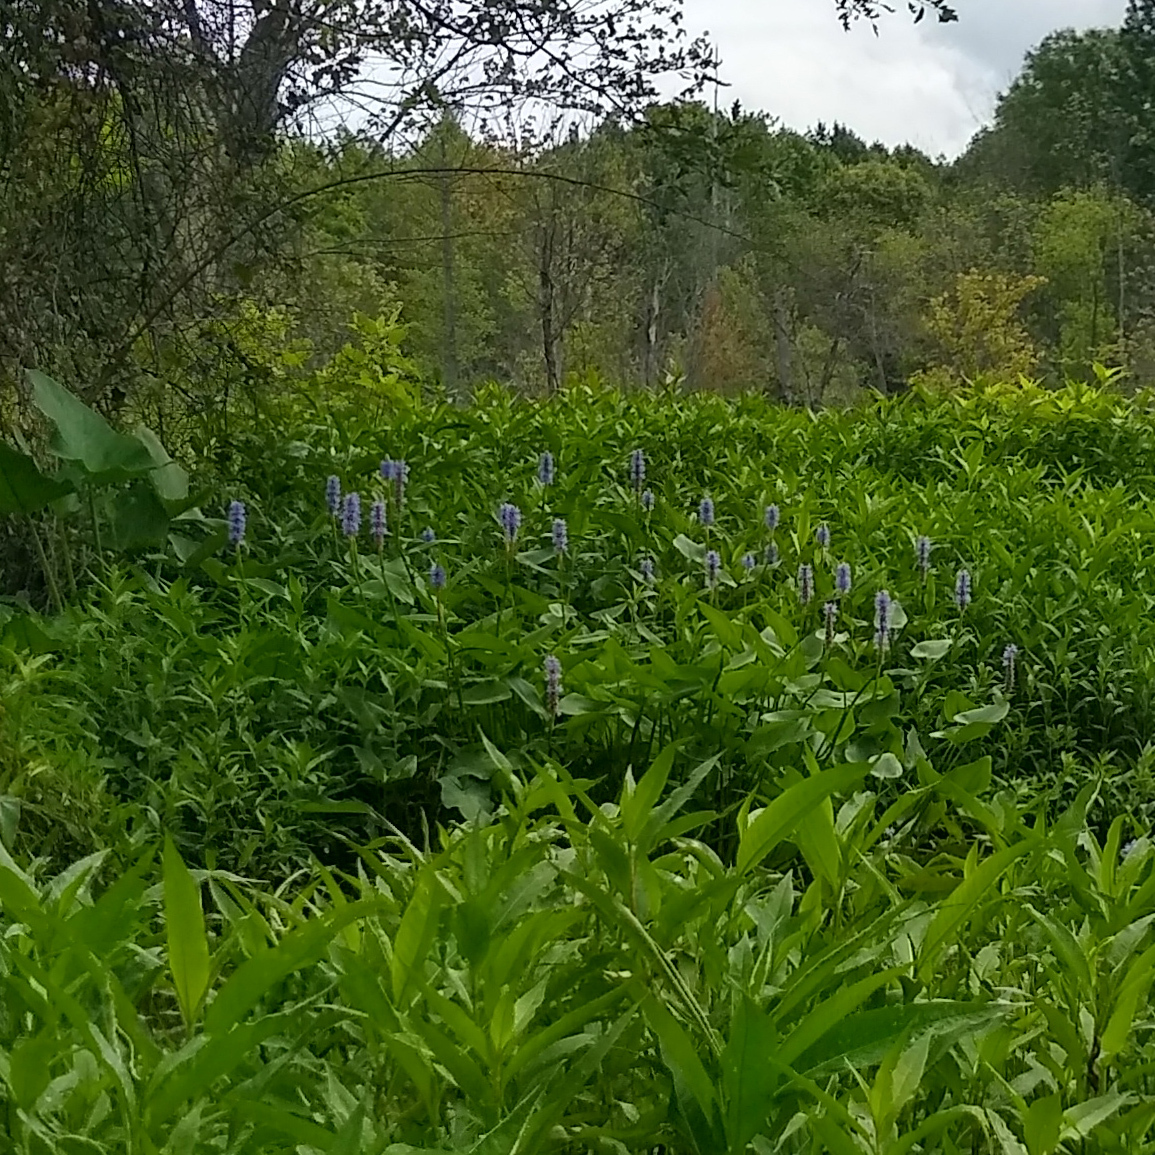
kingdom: Plantae
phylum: Tracheophyta
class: Liliopsida
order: Commelinales
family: Pontederiaceae
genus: Pontederia
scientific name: Pontederia cordata
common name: Pickerelweed
